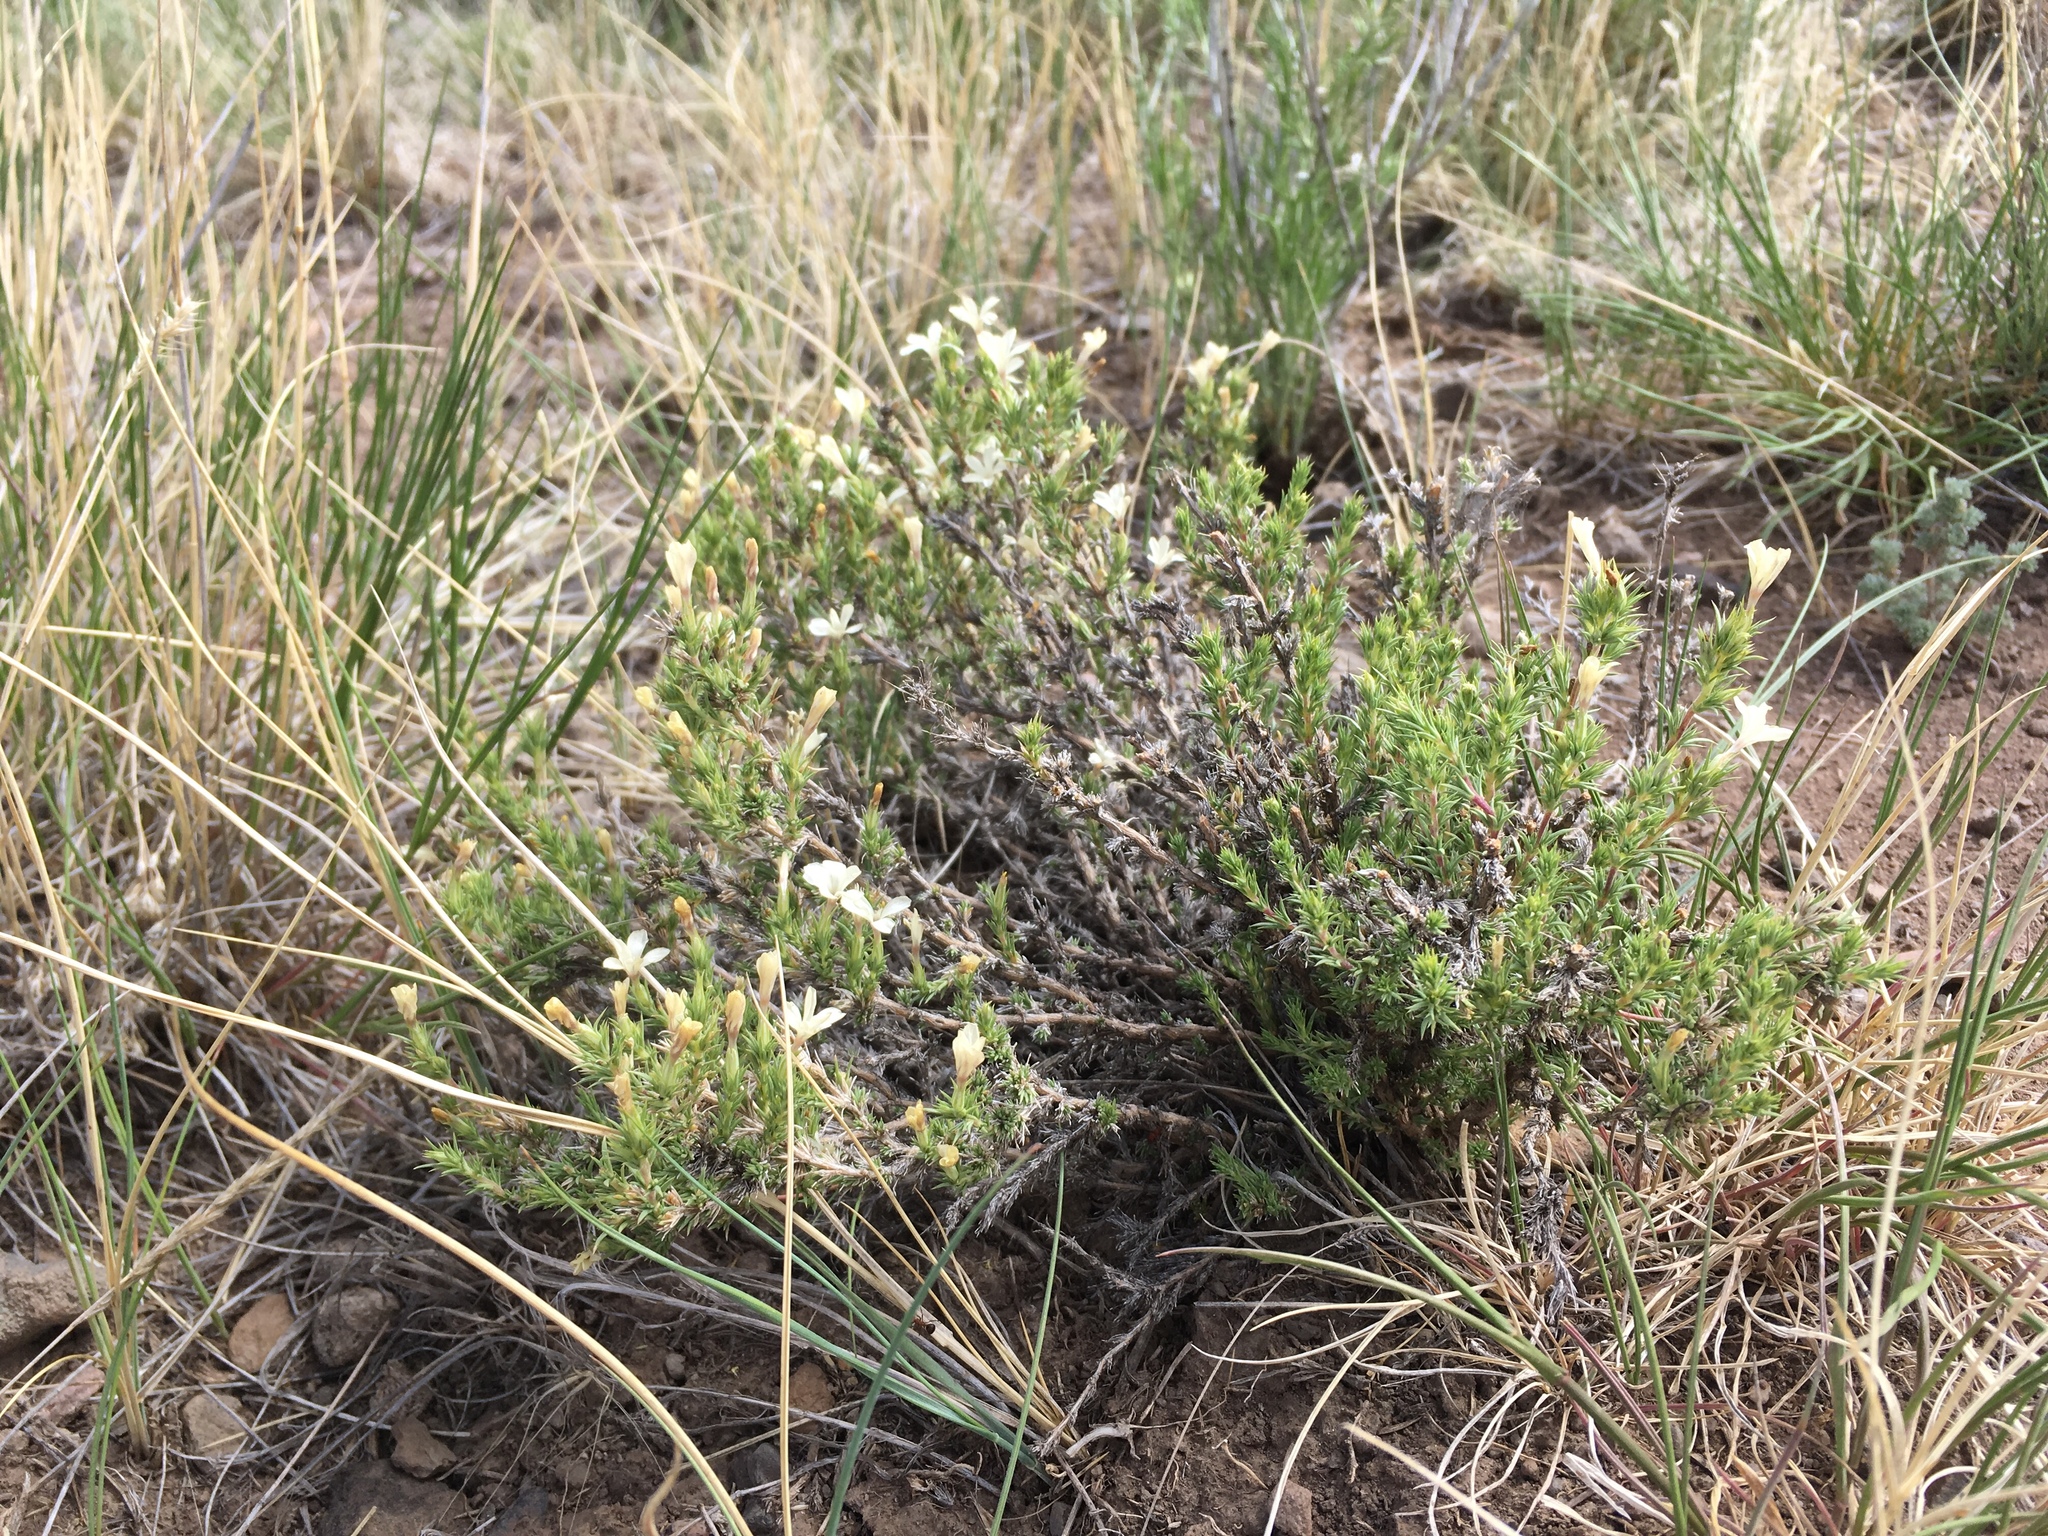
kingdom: Plantae
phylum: Tracheophyta
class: Magnoliopsida
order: Ericales
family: Polemoniaceae
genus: Linanthus
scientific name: Linanthus pungens
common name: Granite prickly phlox
